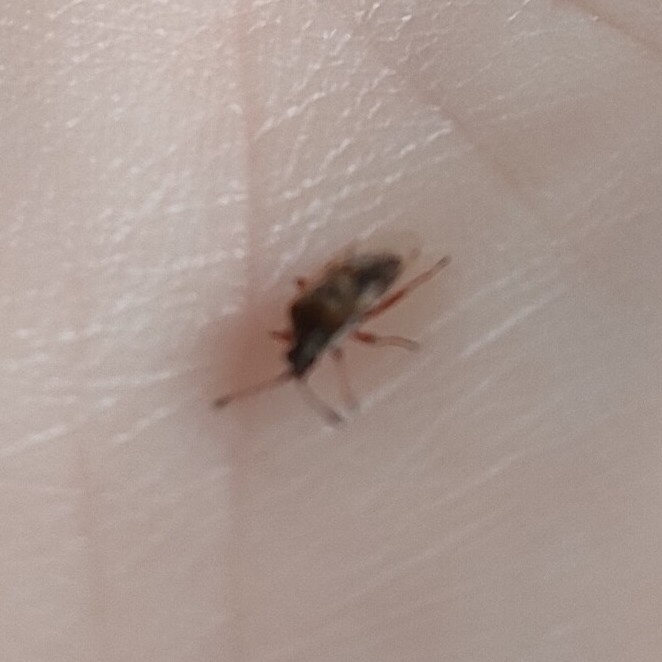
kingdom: Animalia
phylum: Arthropoda
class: Insecta
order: Hemiptera
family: Lygaeidae
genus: Kleidocerys
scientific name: Kleidocerys resedae
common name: Birch catkin bug
